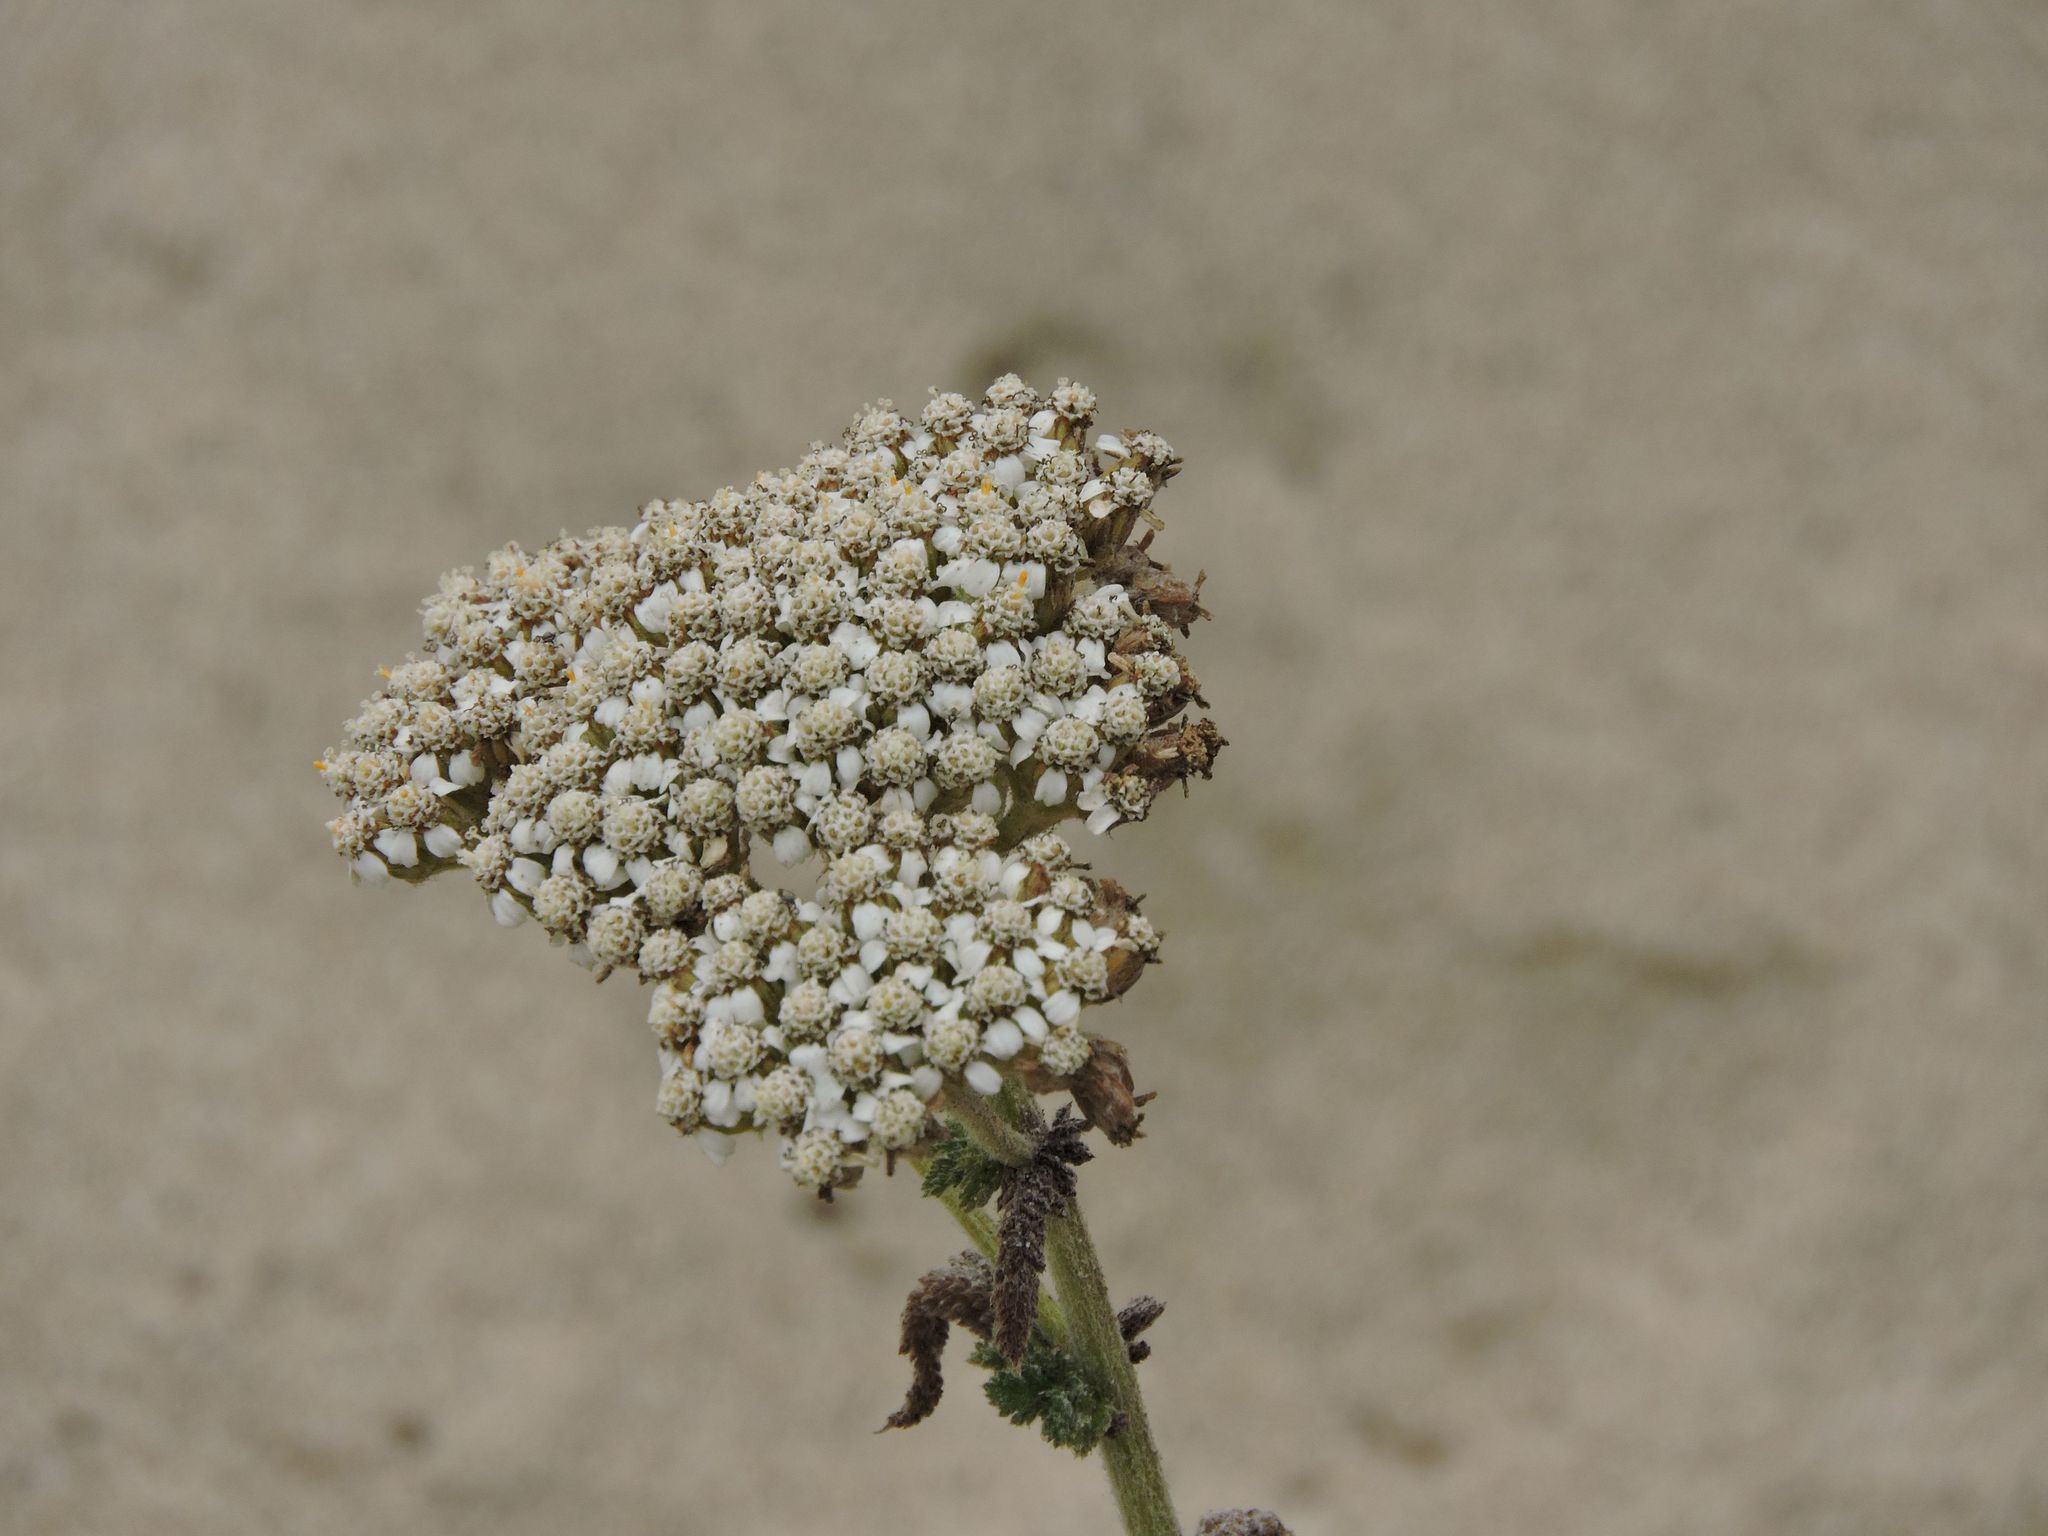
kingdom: Plantae
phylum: Tracheophyta
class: Magnoliopsida
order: Asterales
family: Asteraceae
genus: Achillea
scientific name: Achillea millefolium
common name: Yarrow
